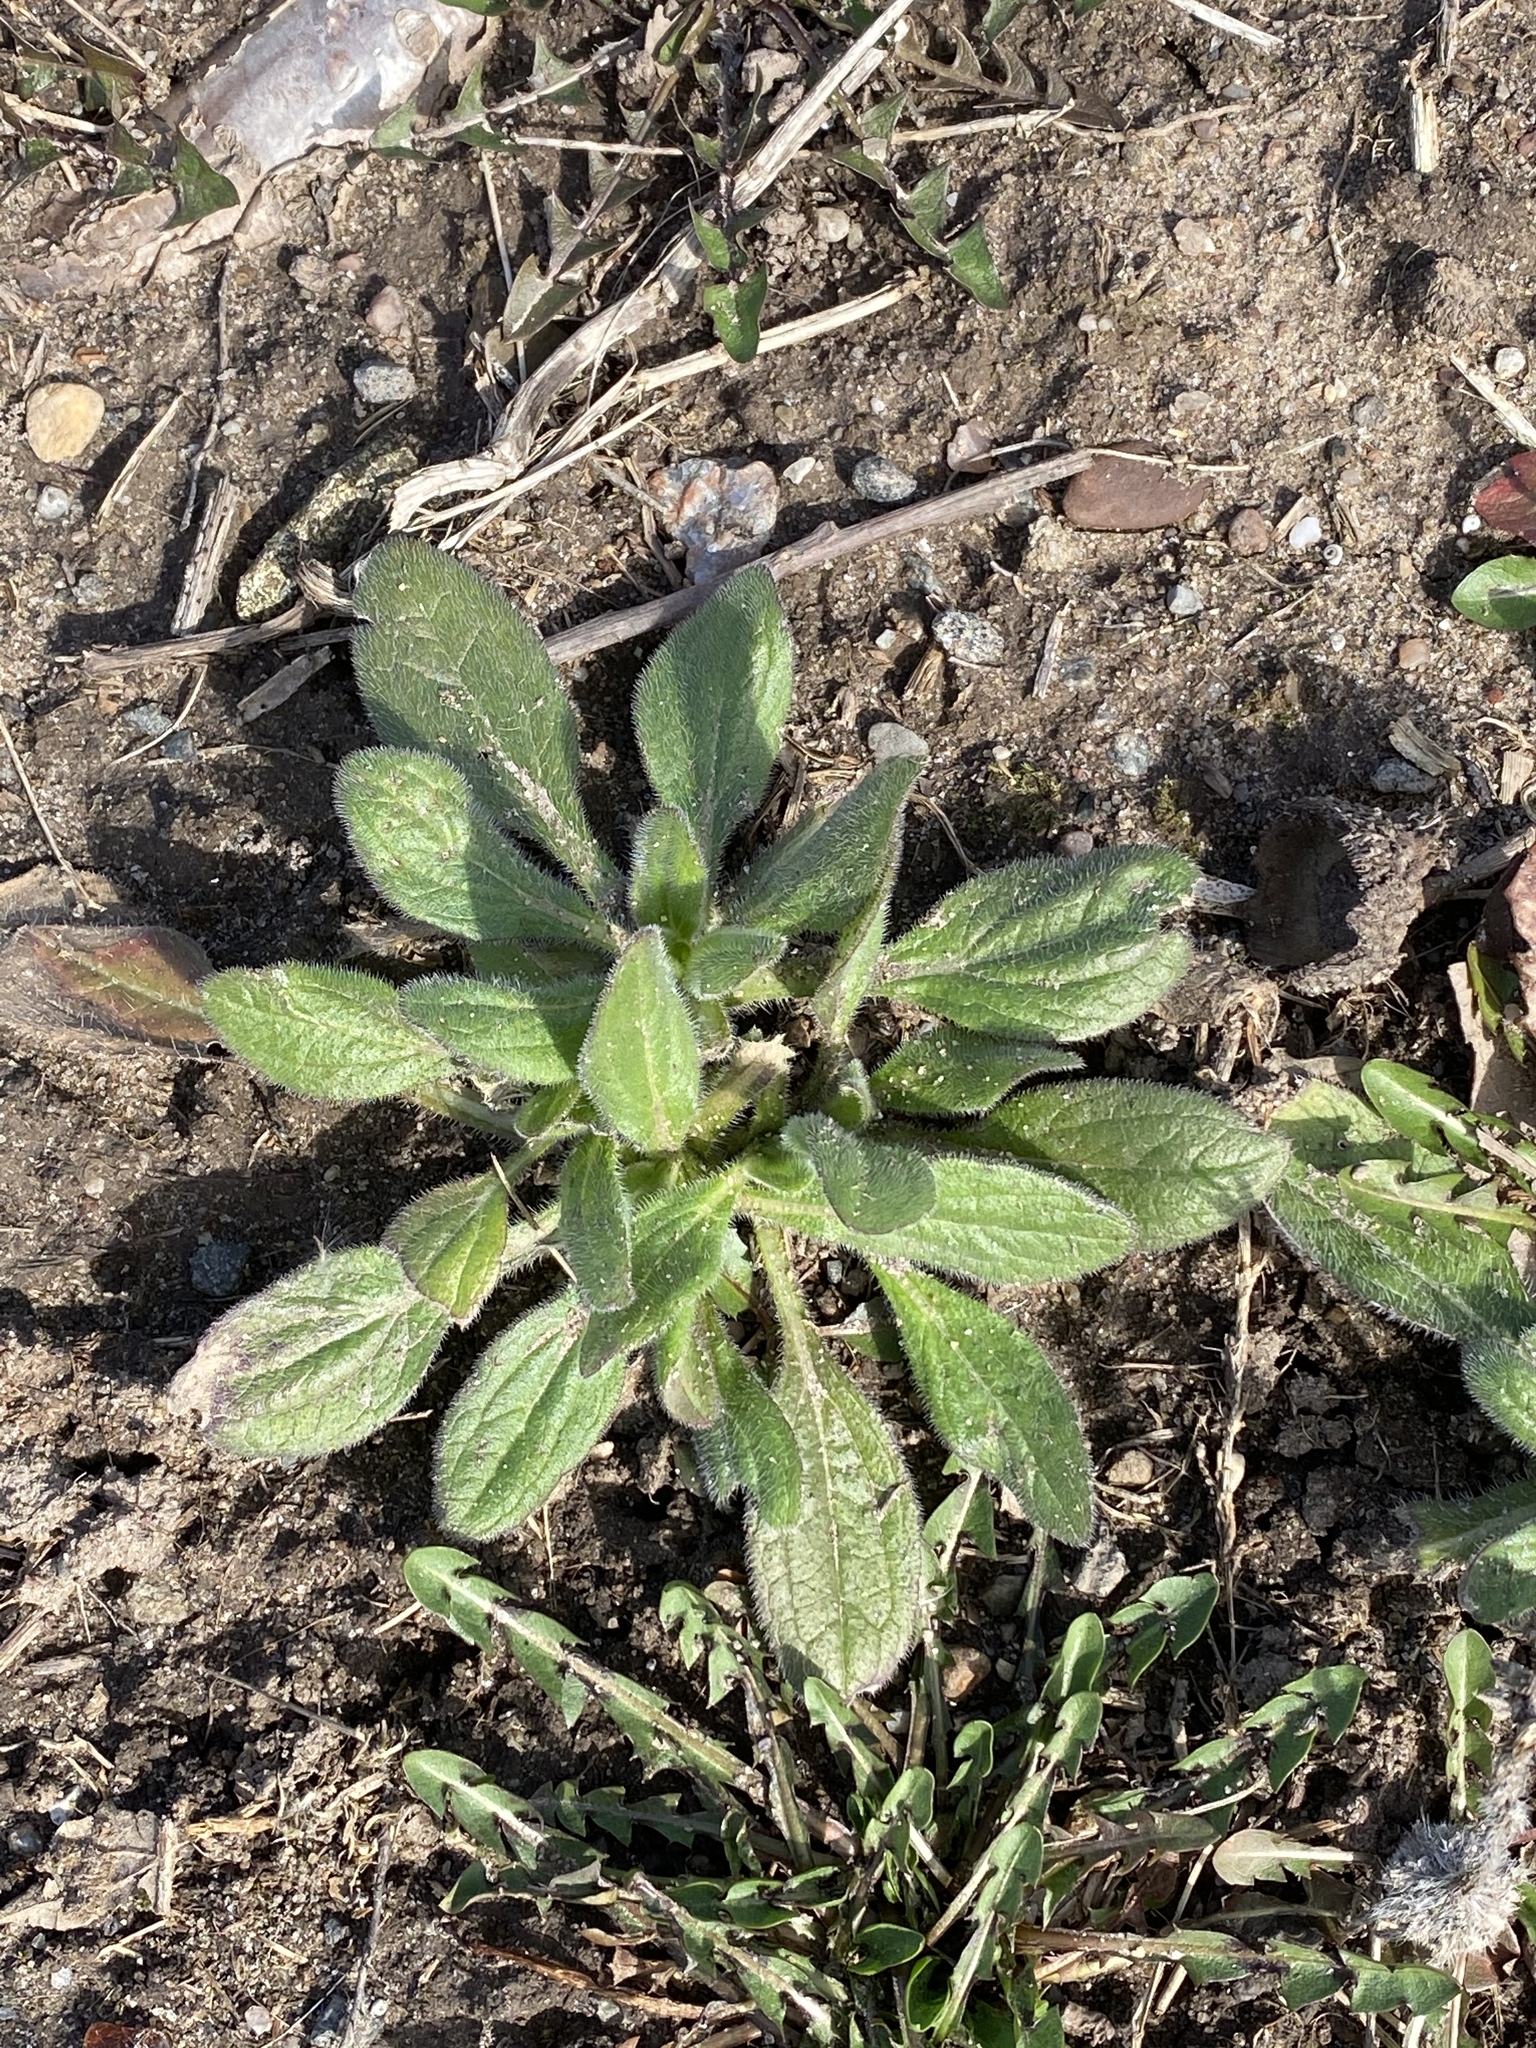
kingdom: Plantae
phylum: Tracheophyta
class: Magnoliopsida
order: Asterales
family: Asteraceae
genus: Rudbeckia
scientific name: Rudbeckia hirta
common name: Black-eyed-susan
